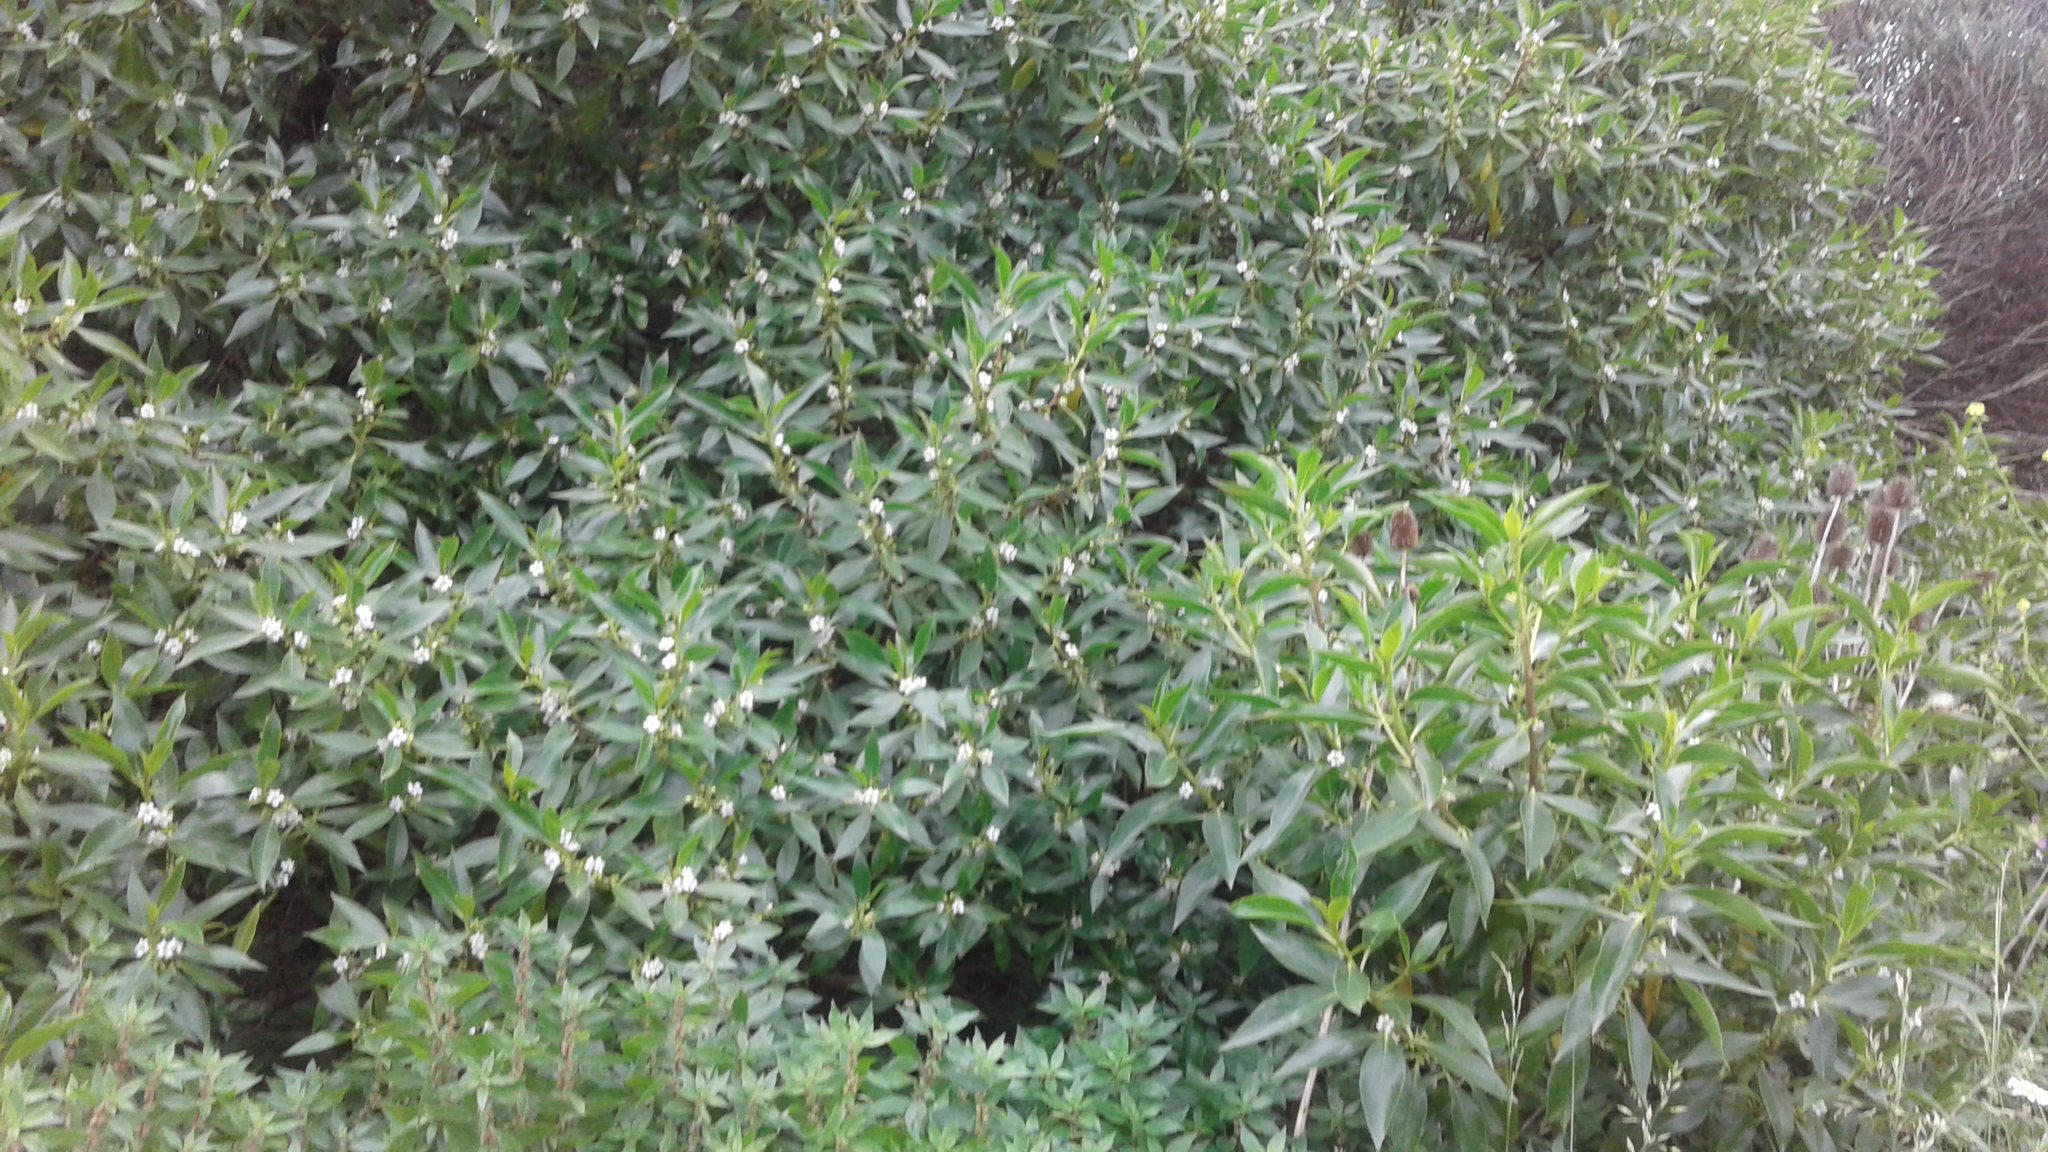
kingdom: Plantae
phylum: Tracheophyta
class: Magnoliopsida
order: Lamiales
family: Scrophulariaceae
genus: Myoporum
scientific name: Myoporum laetum
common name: Ngaio tree
